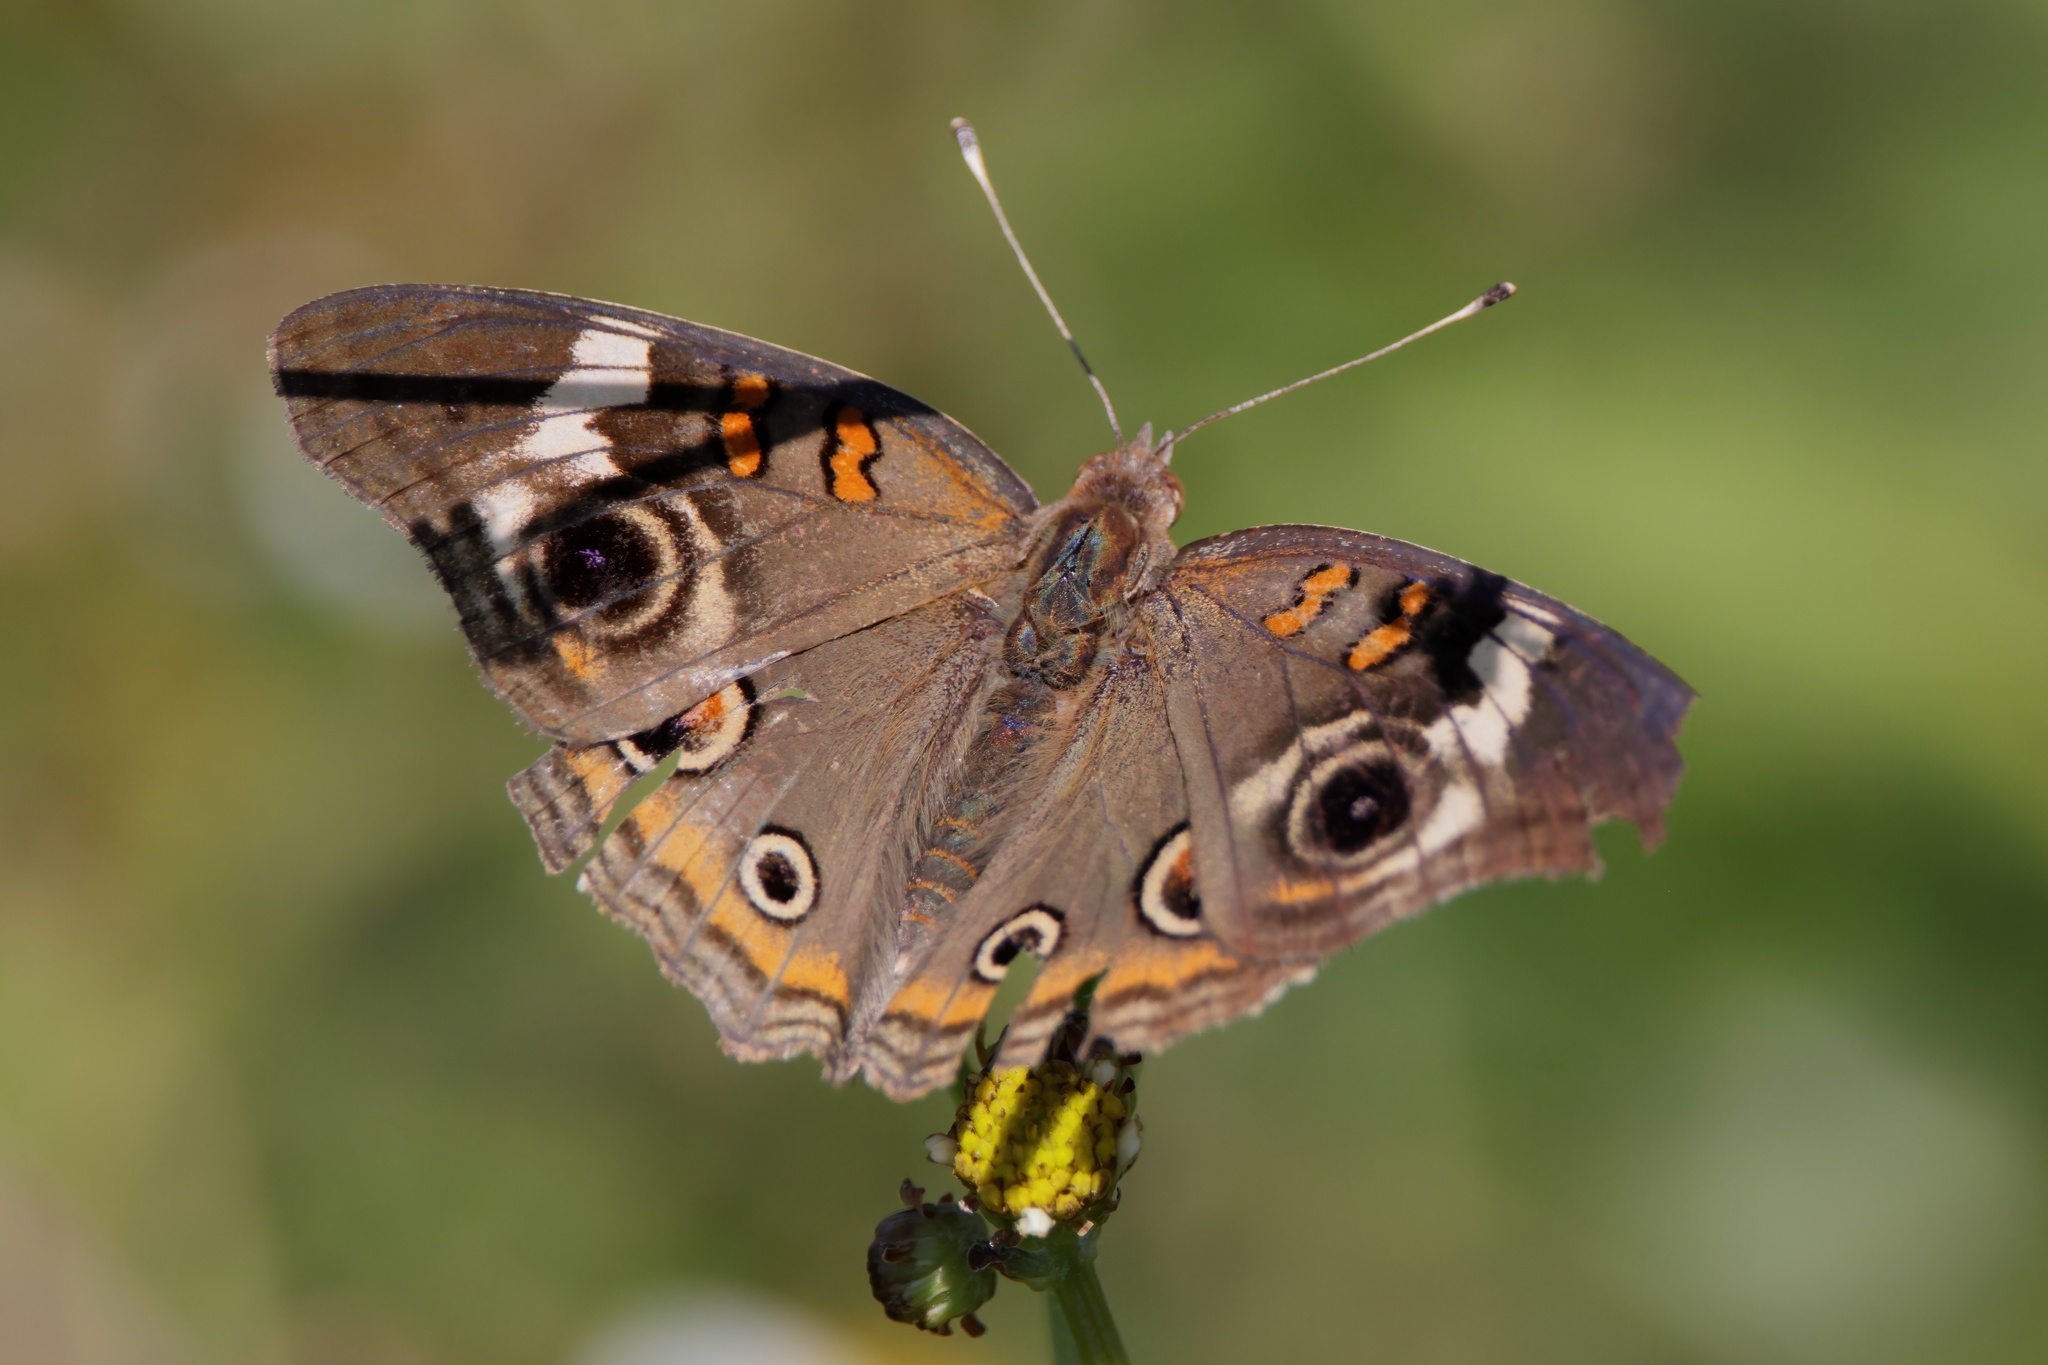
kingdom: Animalia
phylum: Arthropoda
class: Insecta
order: Lepidoptera
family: Nymphalidae
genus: Junonia
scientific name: Junonia coenia
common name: Common buckeye
